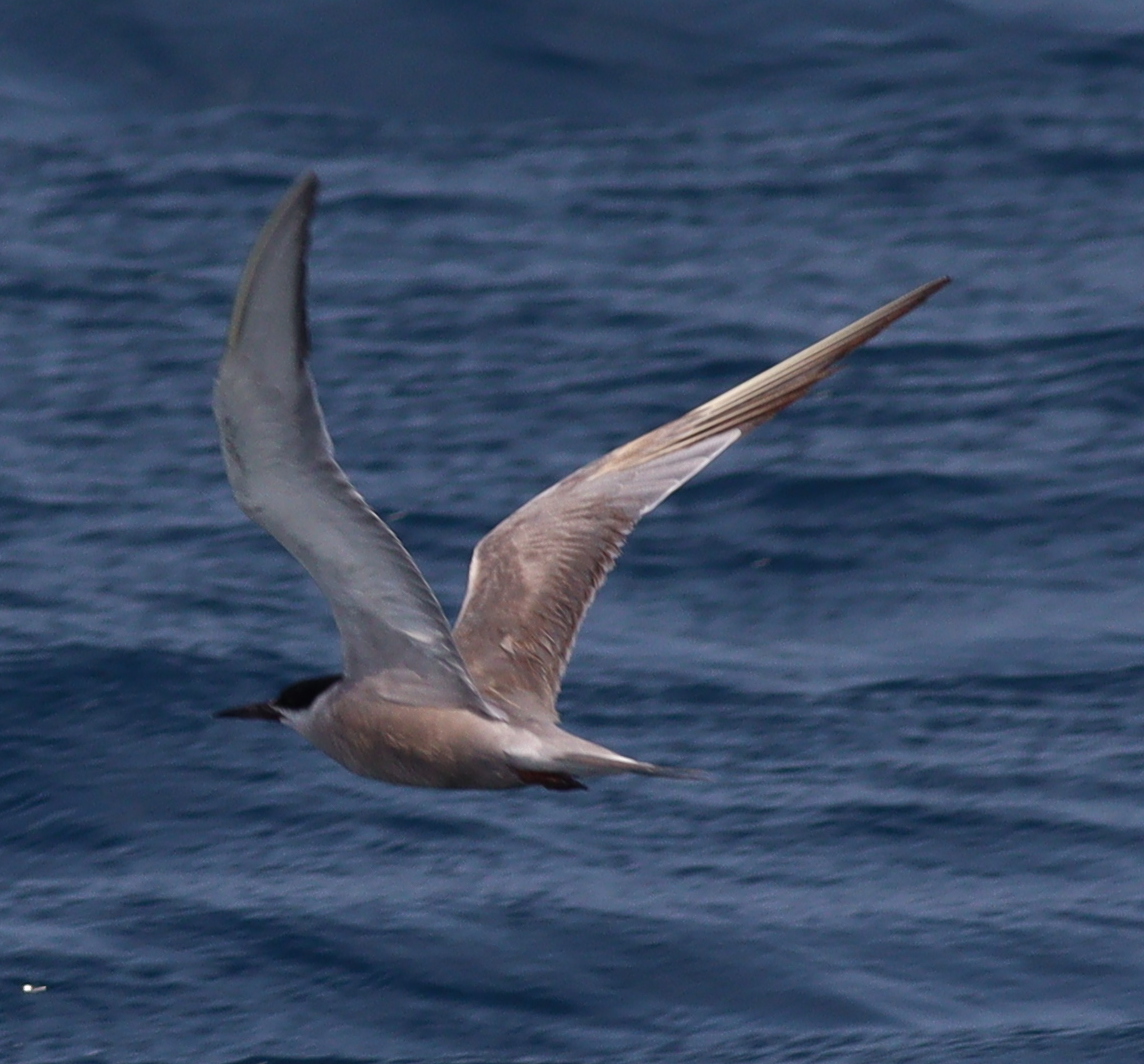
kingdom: Animalia
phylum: Chordata
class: Aves
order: Charadriiformes
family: Laridae
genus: Sterna
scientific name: Sterna repressa
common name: White-cheeked tern
